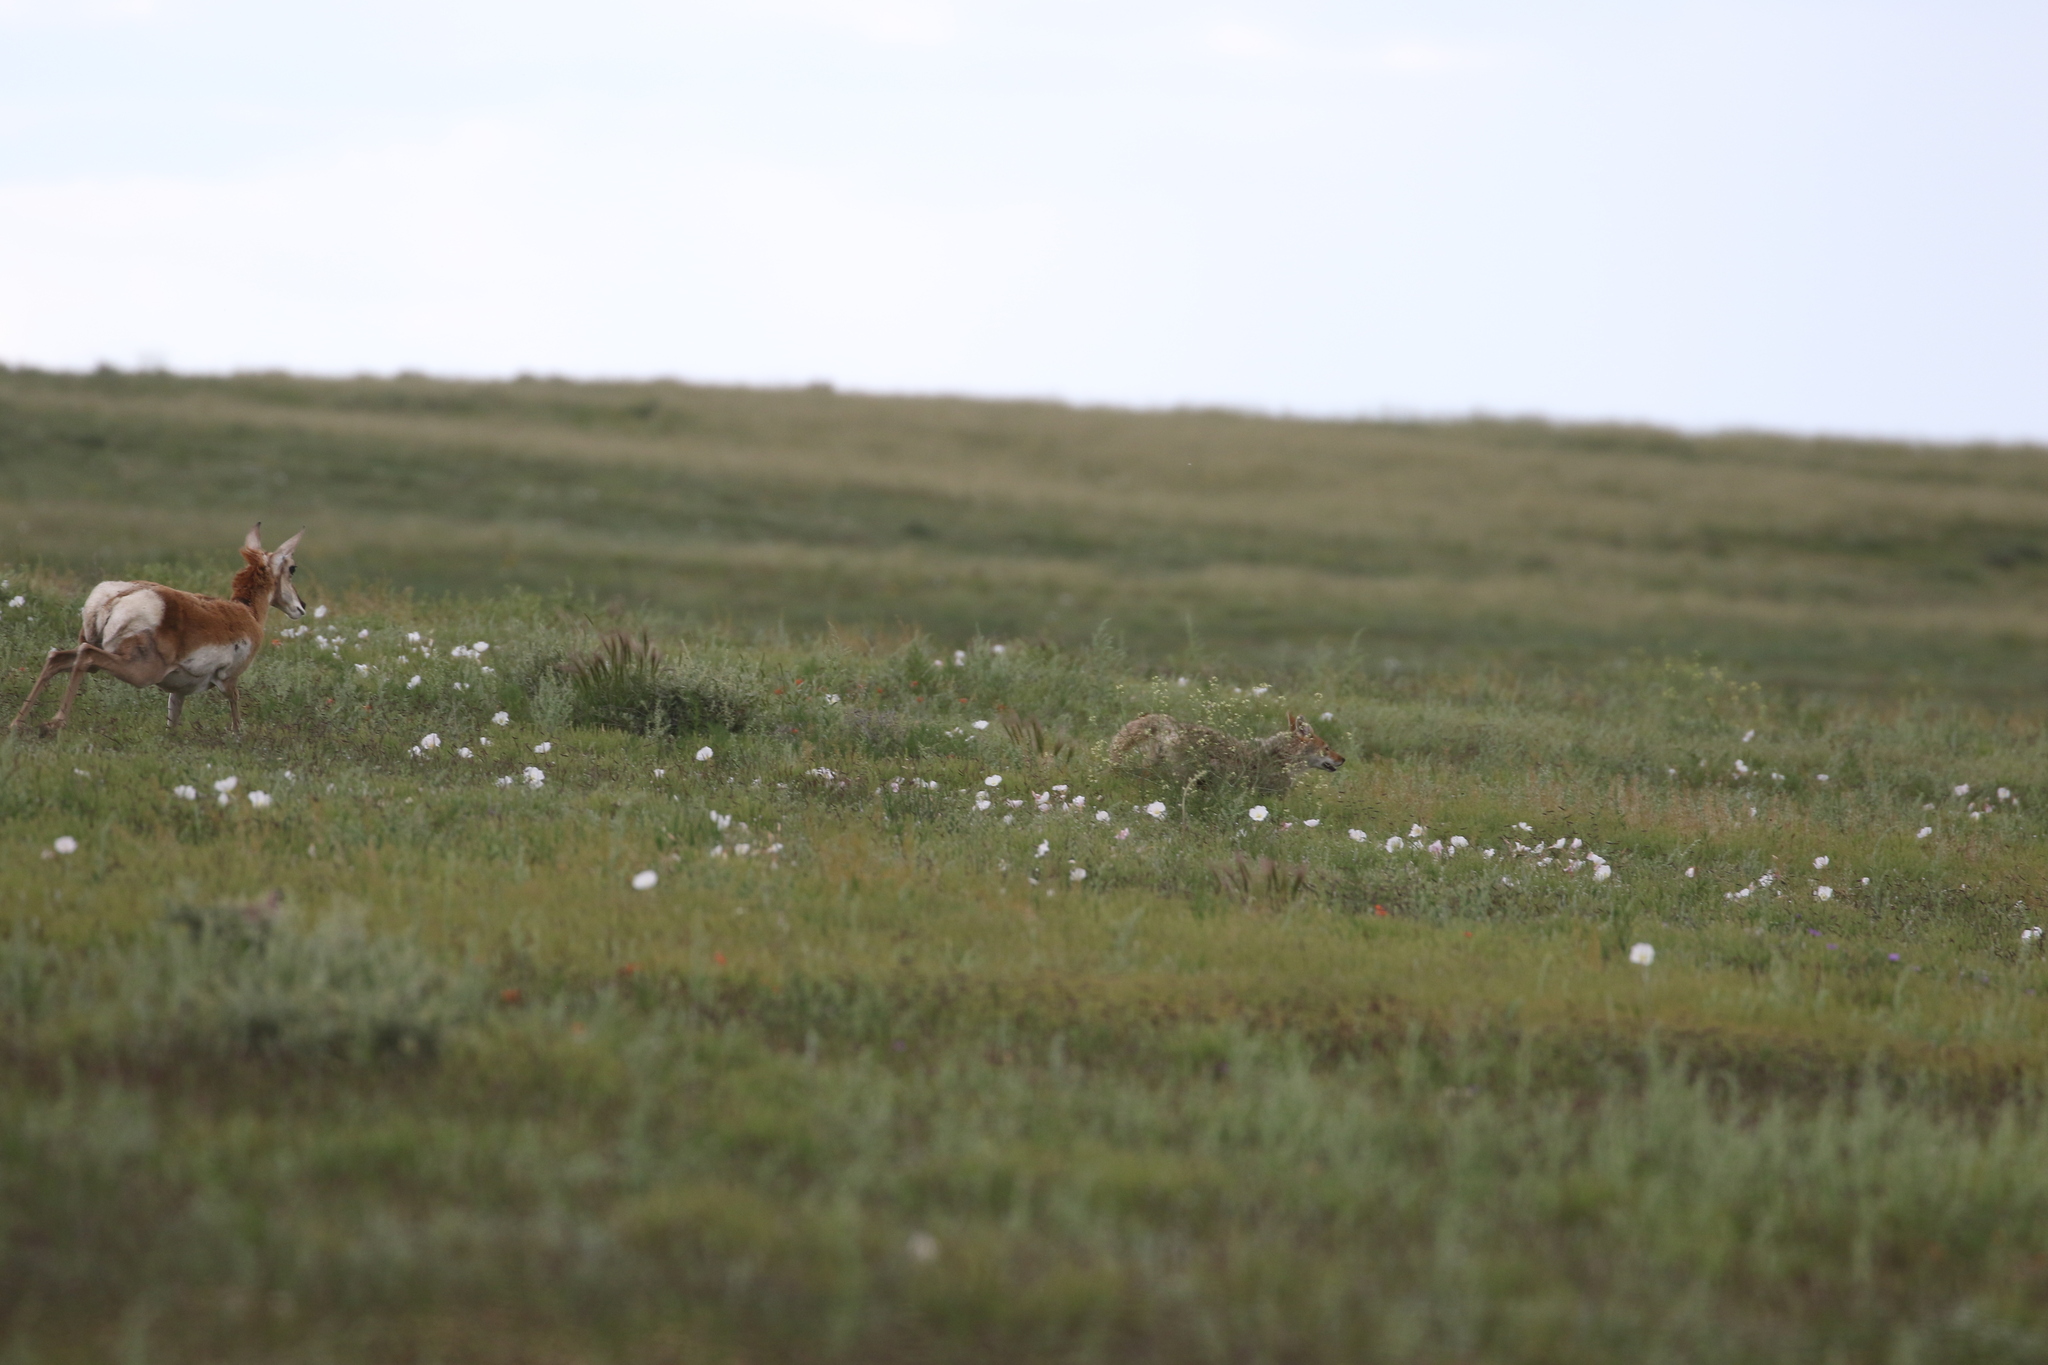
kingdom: Animalia
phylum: Chordata
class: Mammalia
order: Artiodactyla
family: Antilocapridae
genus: Antilocapra
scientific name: Antilocapra americana
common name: Pronghorn
